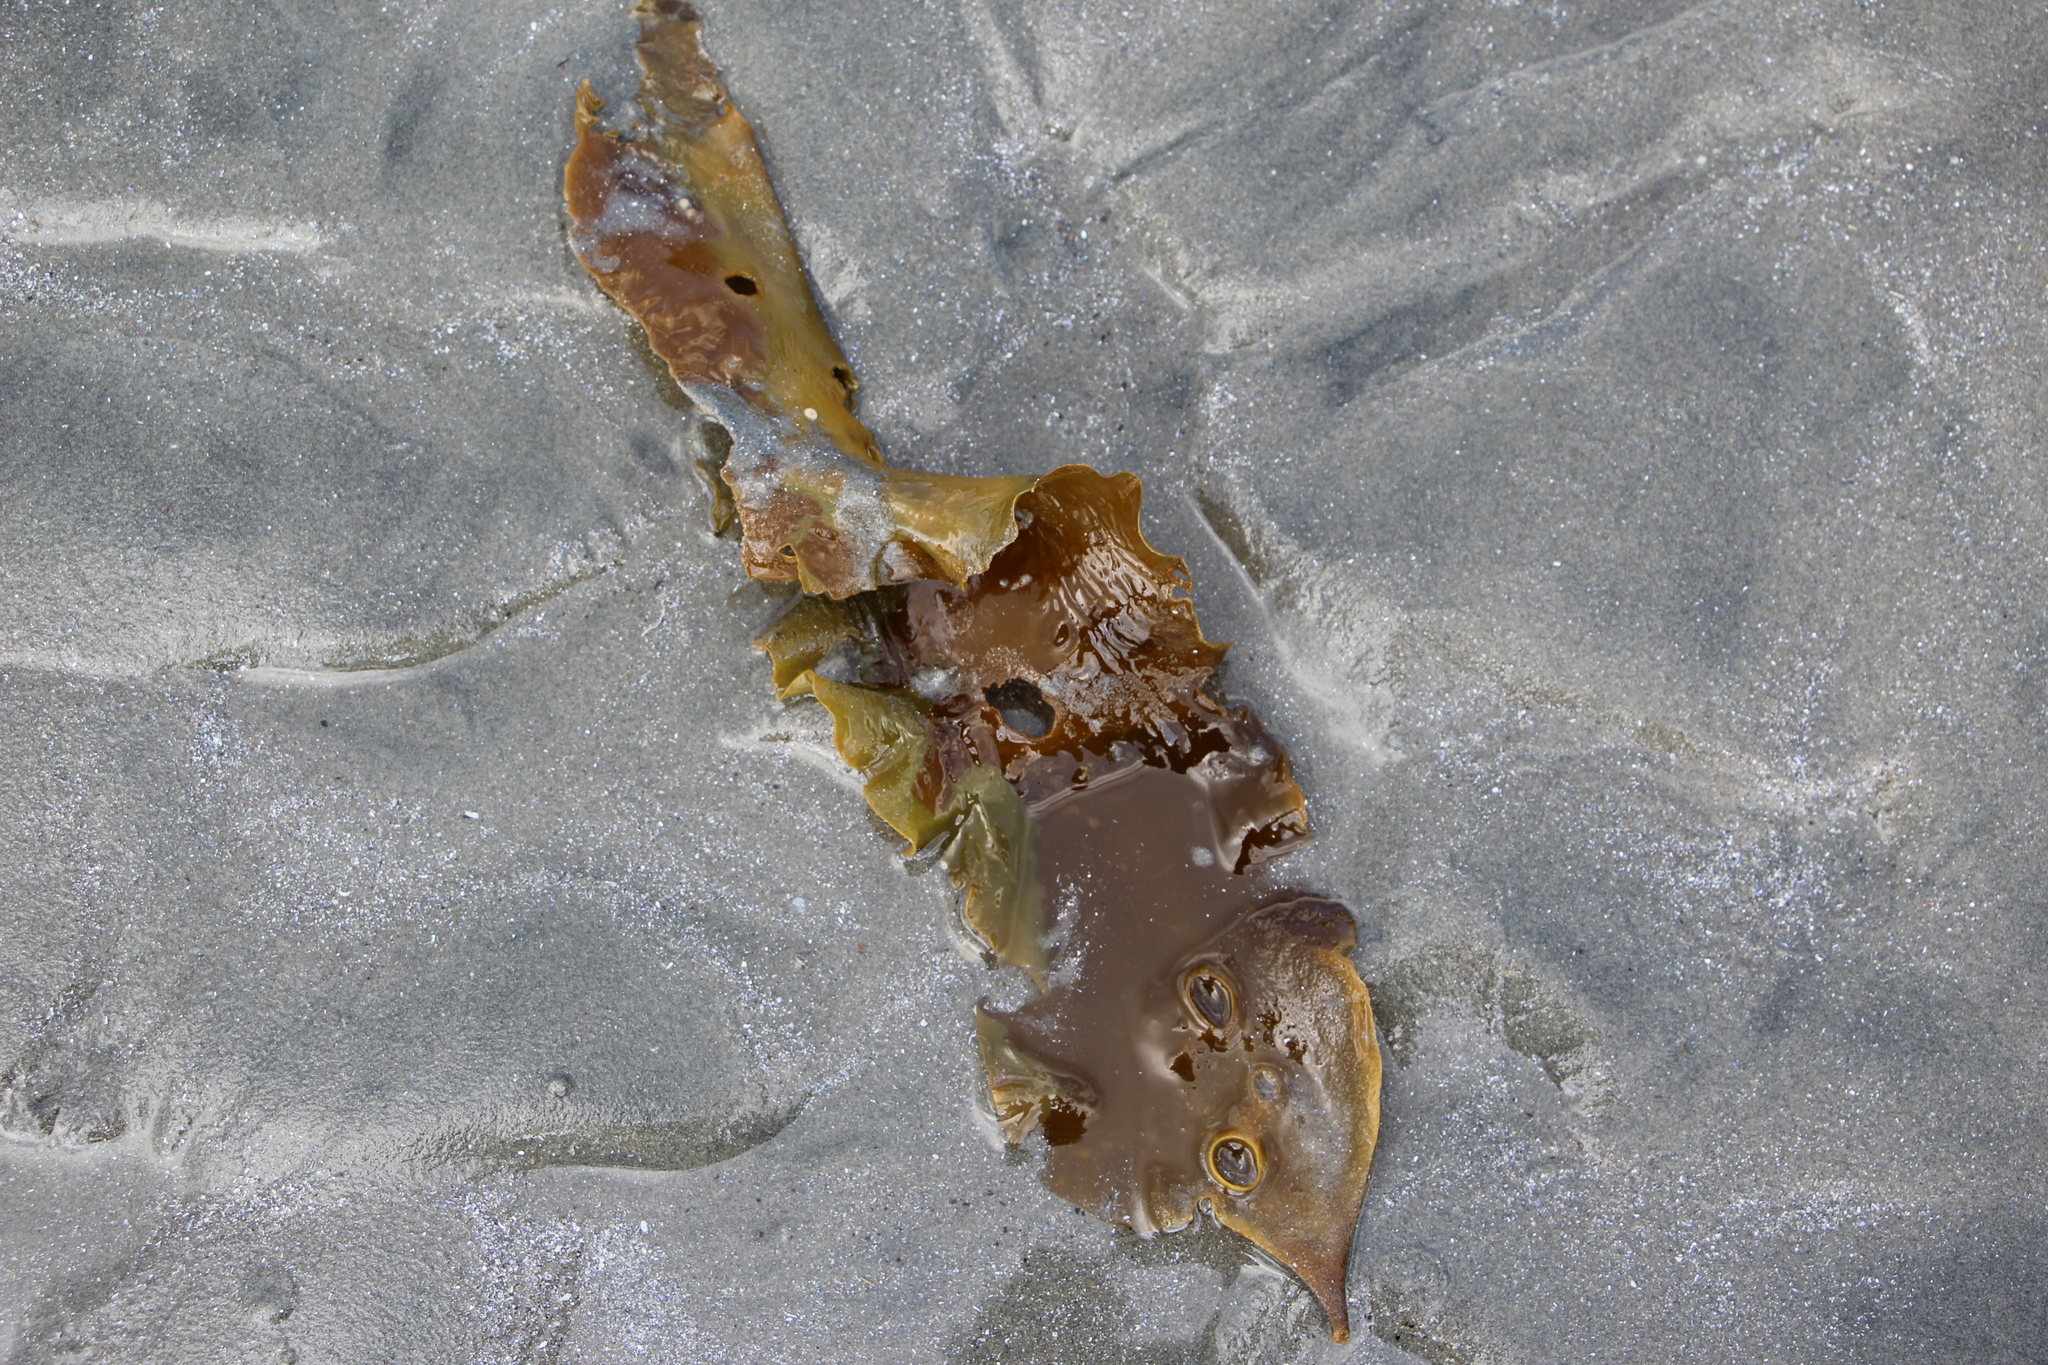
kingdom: Chromista
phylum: Ochrophyta
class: Phaeophyceae
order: Laminariales
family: Laminariaceae
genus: Saccharina
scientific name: Saccharina latissima
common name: Poor man's weather glass
